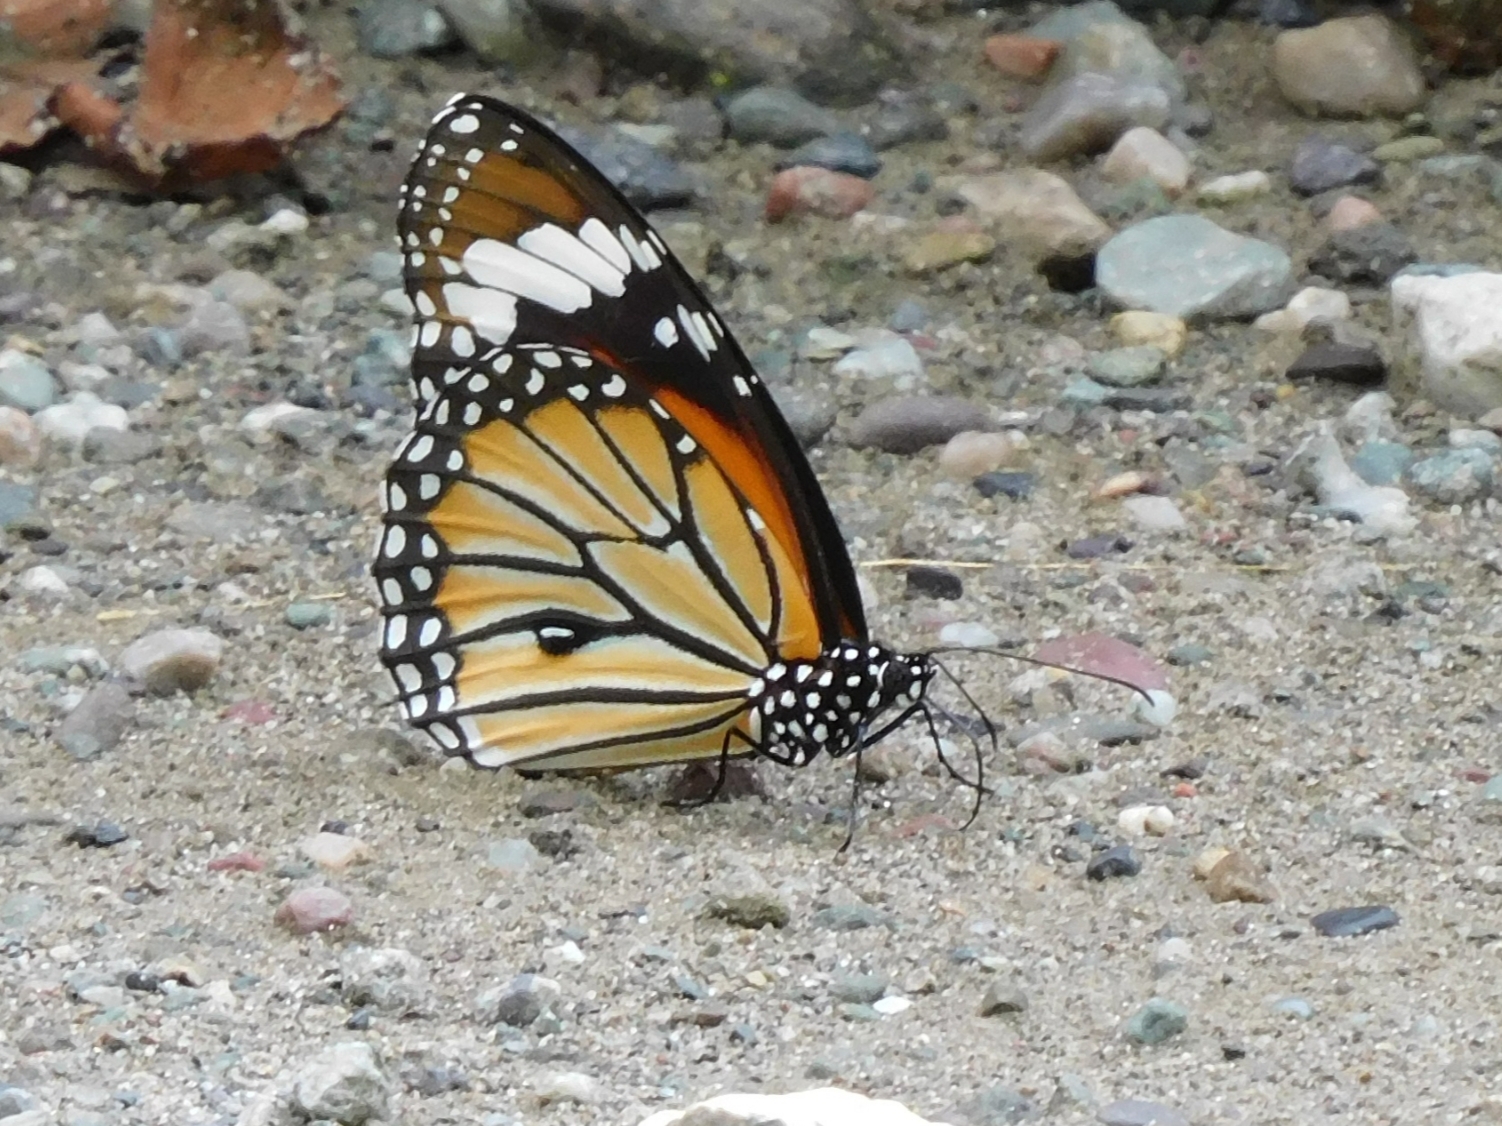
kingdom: Animalia
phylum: Arthropoda
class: Insecta
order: Lepidoptera
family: Nymphalidae
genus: Danaus
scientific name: Danaus genutia
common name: Common tiger butterfly
